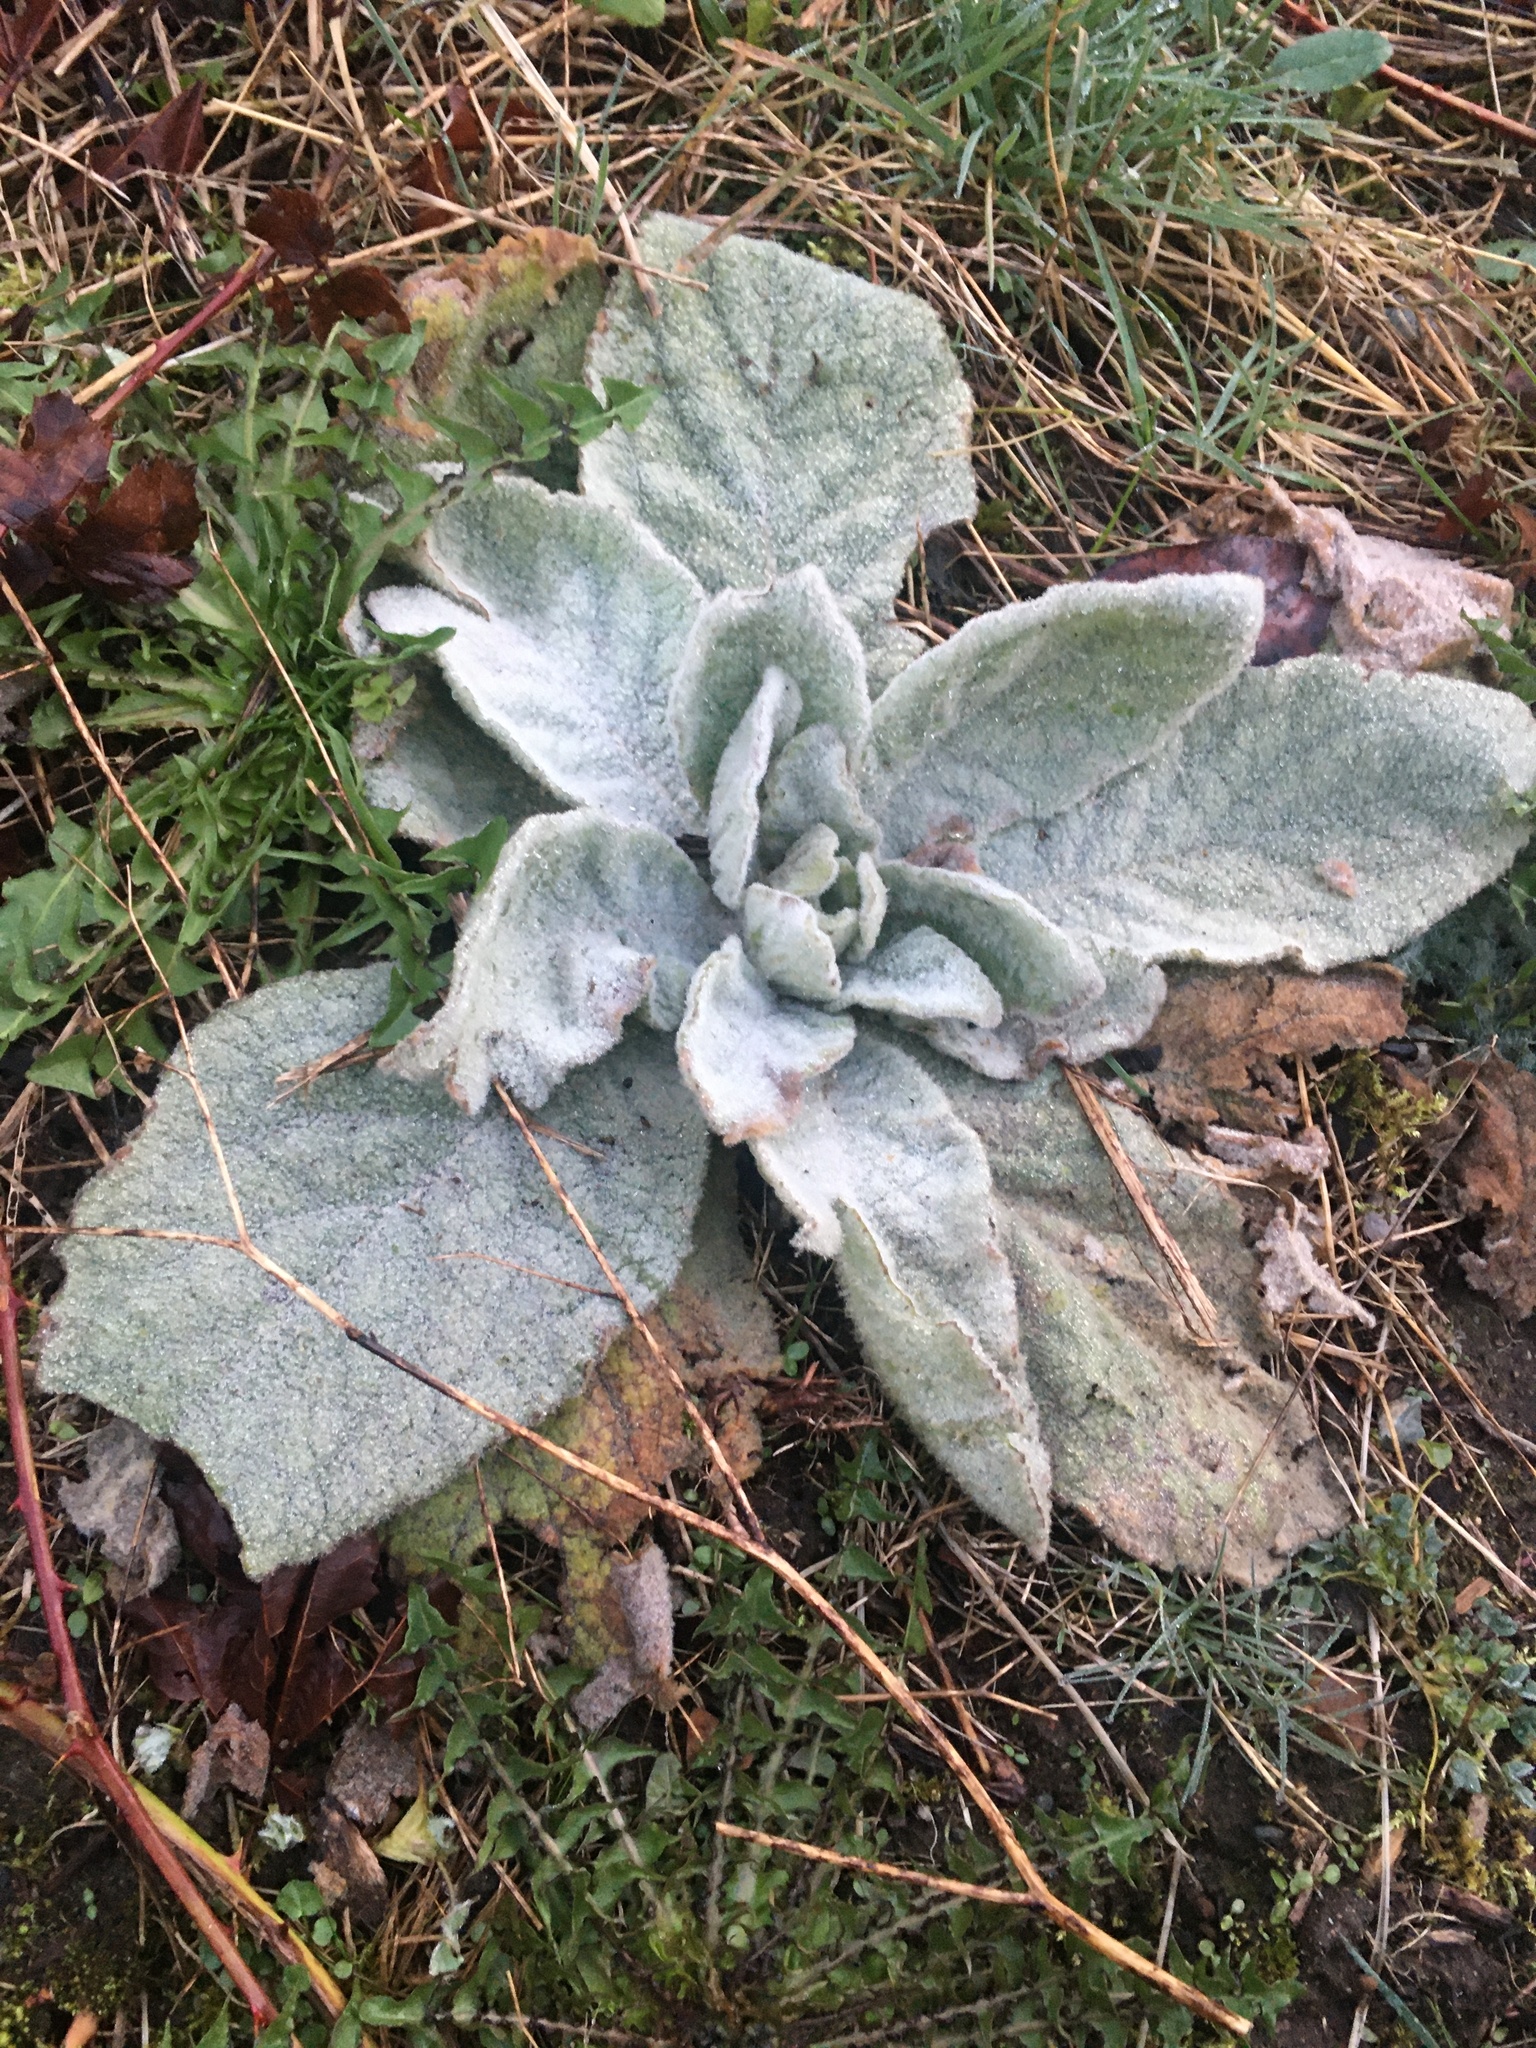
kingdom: Plantae
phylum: Tracheophyta
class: Magnoliopsida
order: Lamiales
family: Scrophulariaceae
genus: Verbascum
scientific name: Verbascum thapsus
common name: Common mullein
